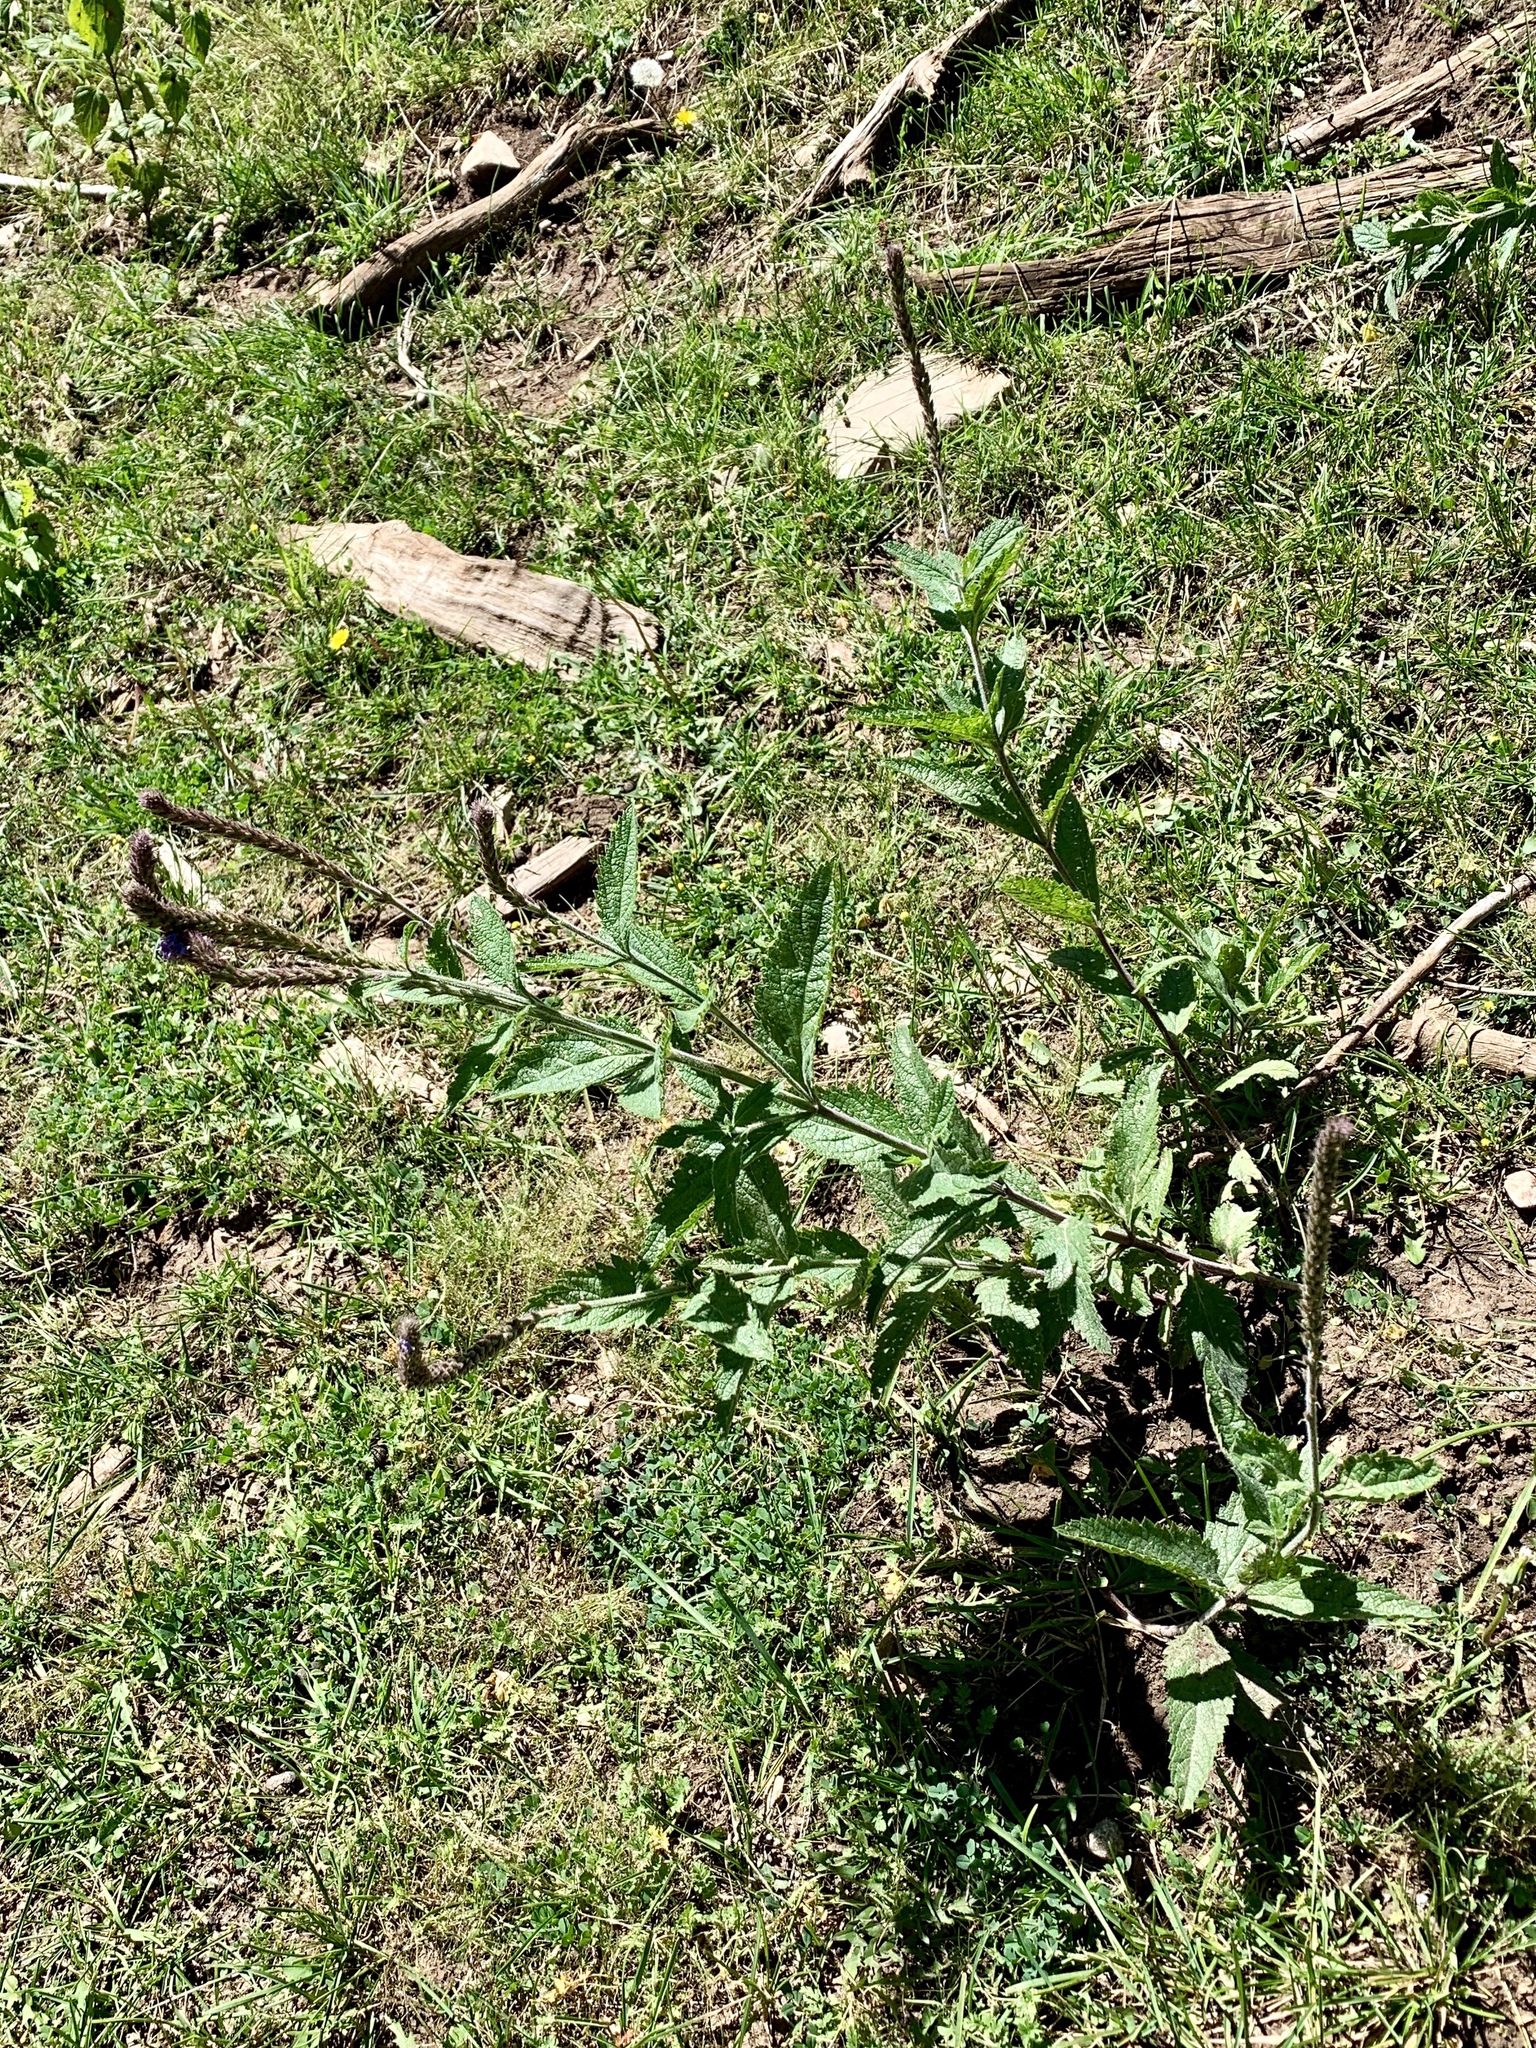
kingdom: Plantae
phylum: Tracheophyta
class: Magnoliopsida
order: Lamiales
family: Verbenaceae
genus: Verbena
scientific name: Verbena macdougalii
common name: New mexico vervain
